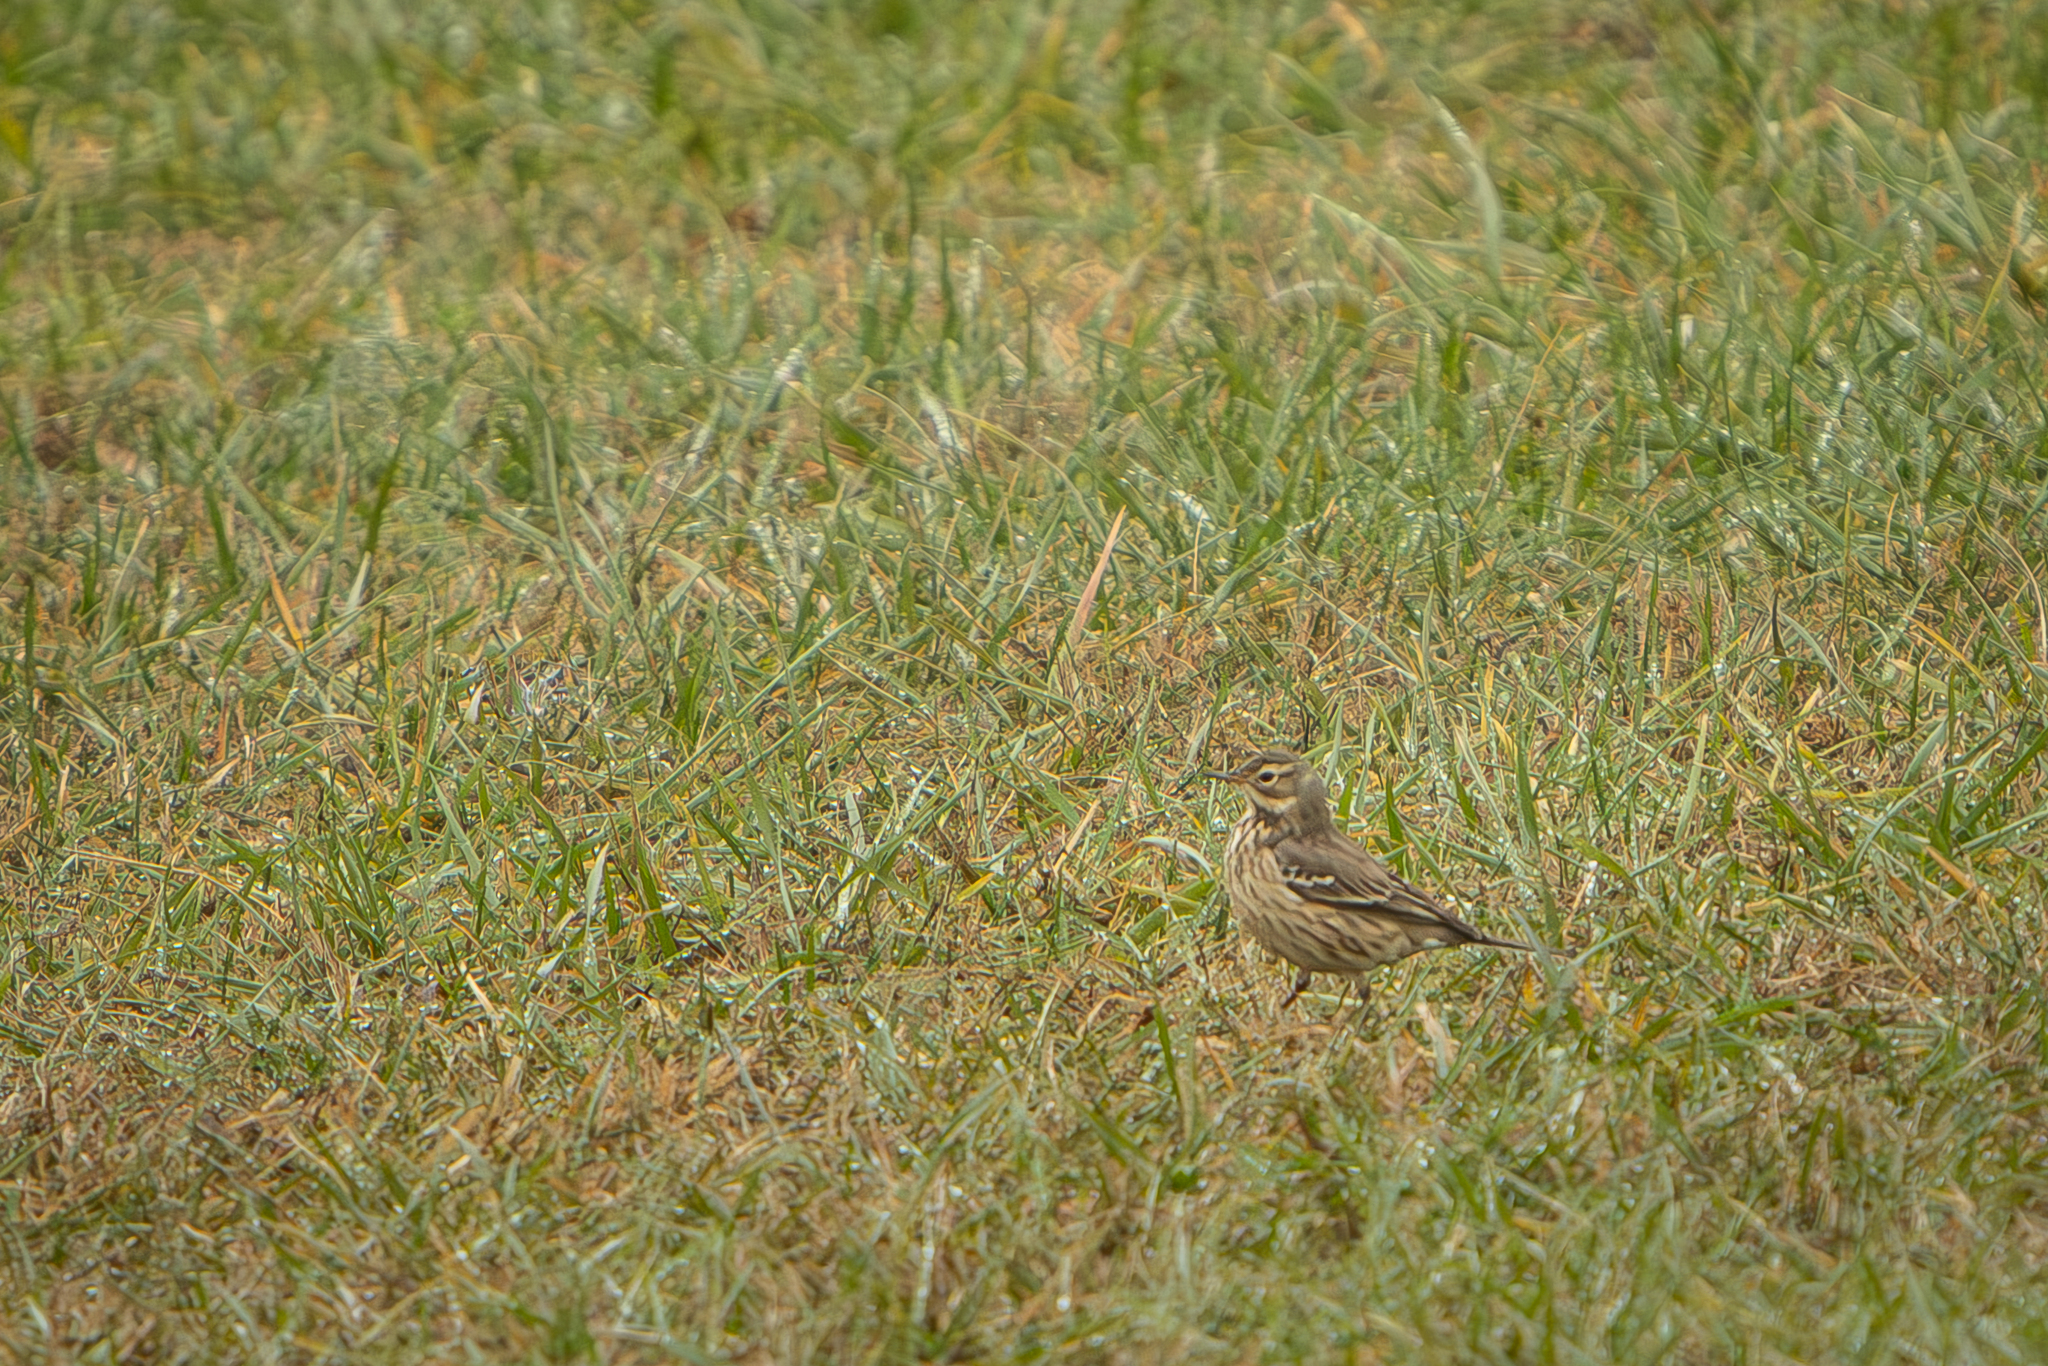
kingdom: Animalia
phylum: Chordata
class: Aves
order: Passeriformes
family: Motacillidae
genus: Anthus
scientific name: Anthus rubescens
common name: Buff-bellied pipit
